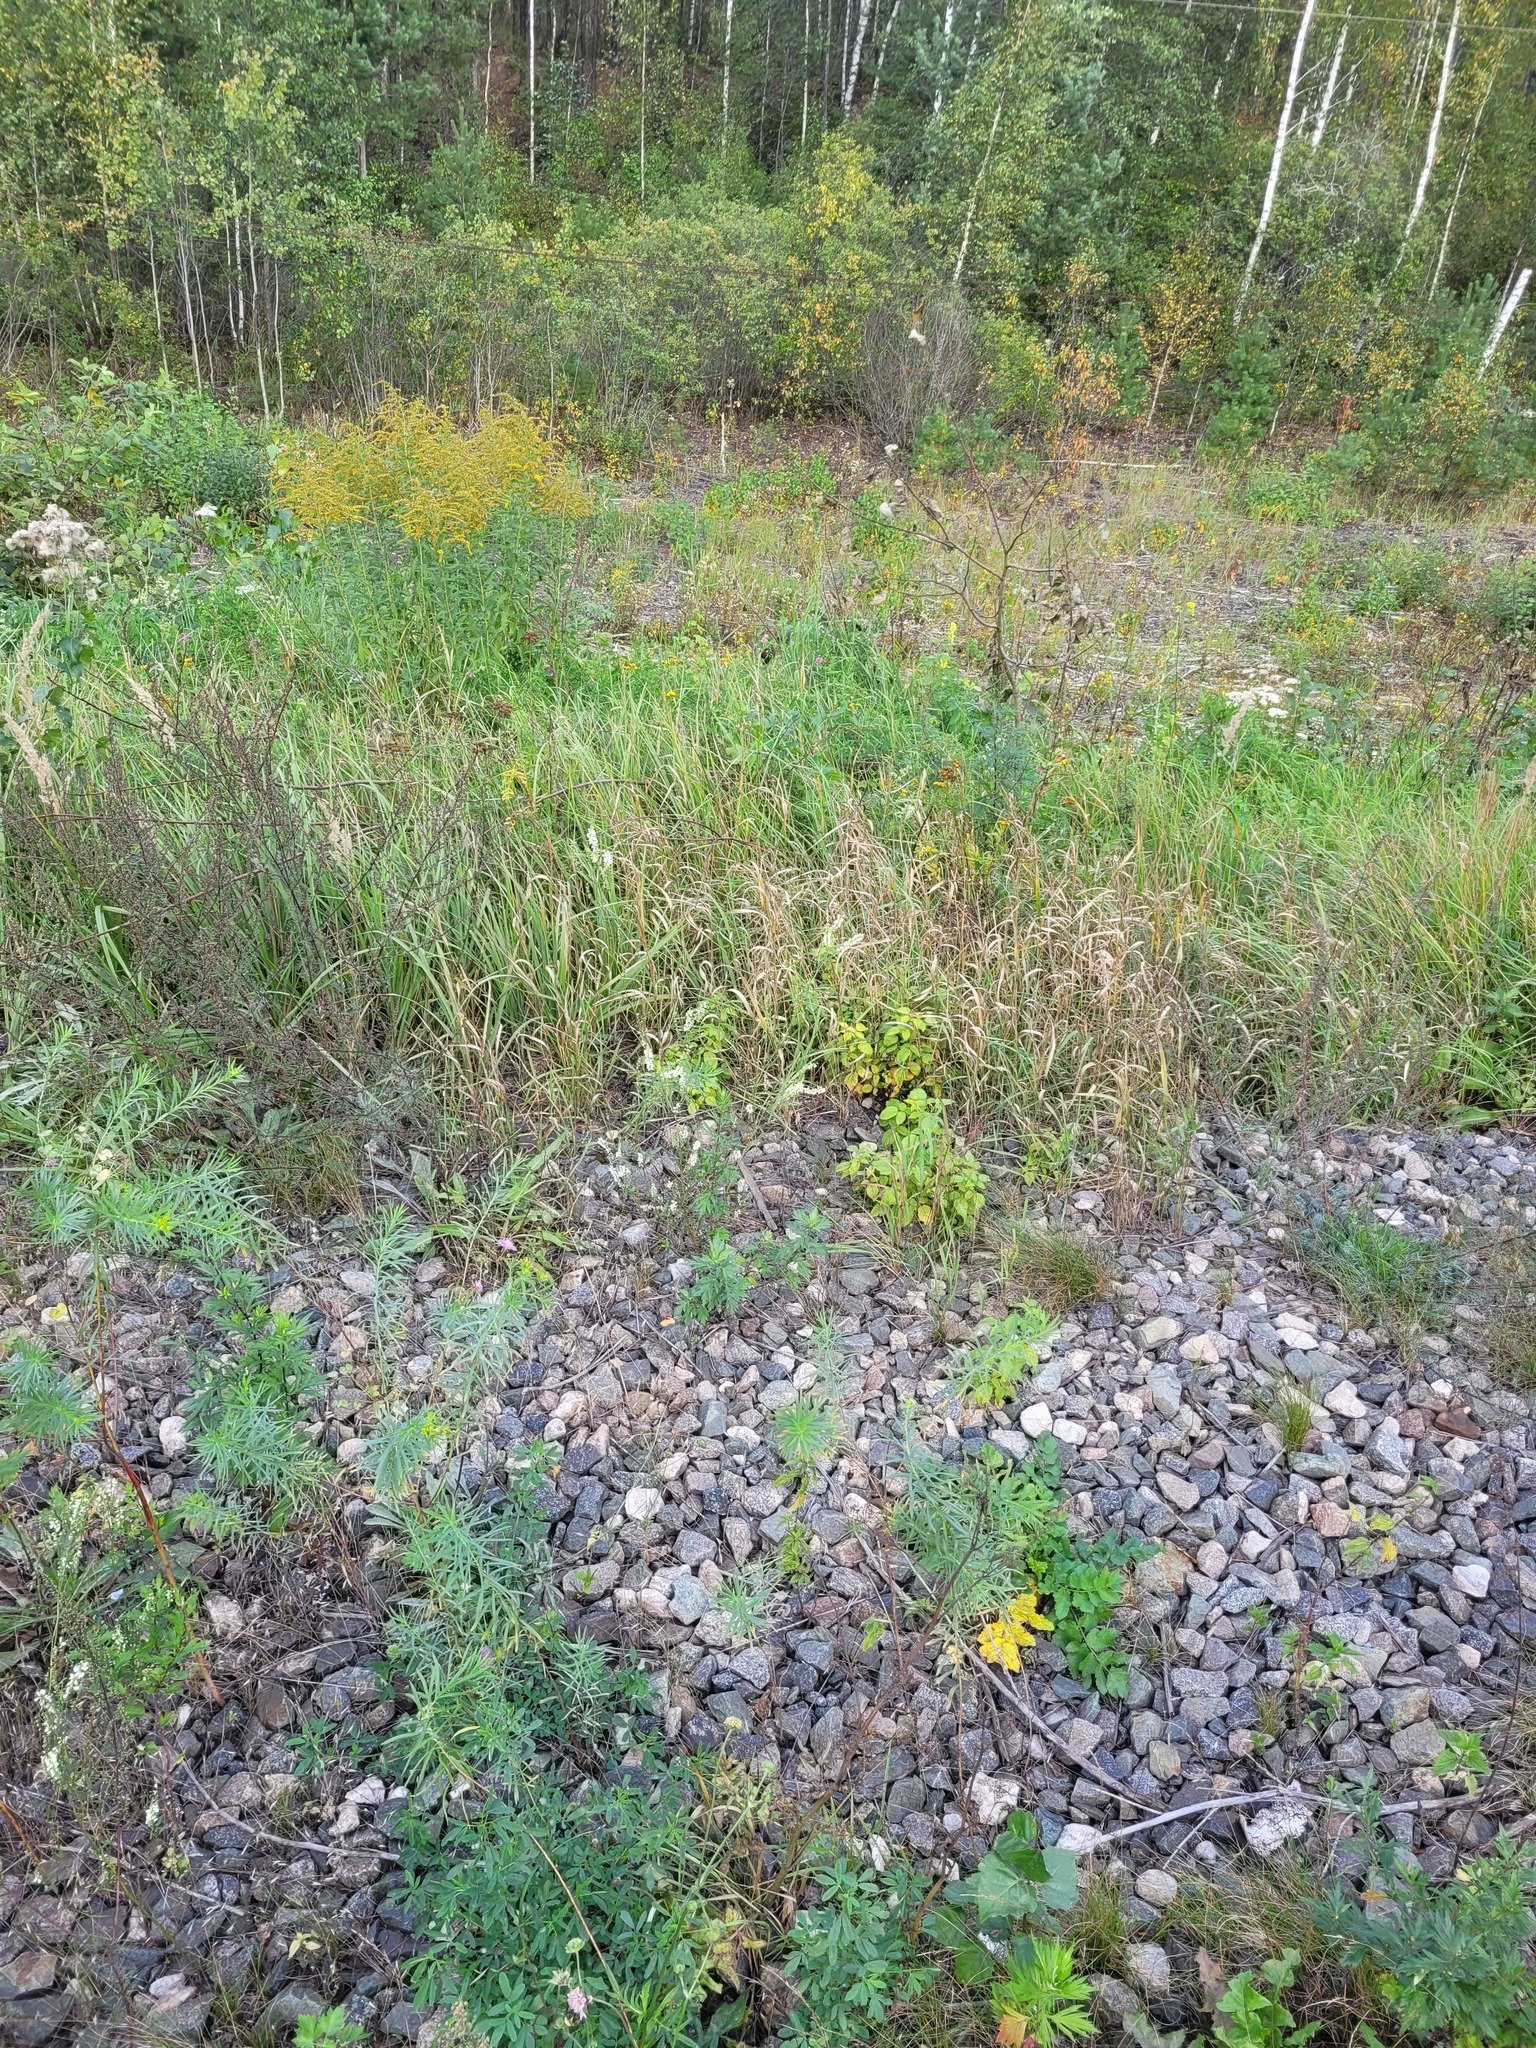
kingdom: Plantae
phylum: Tracheophyta
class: Magnoliopsida
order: Fabales
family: Fabaceae
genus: Melilotus
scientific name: Melilotus albus
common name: White melilot
